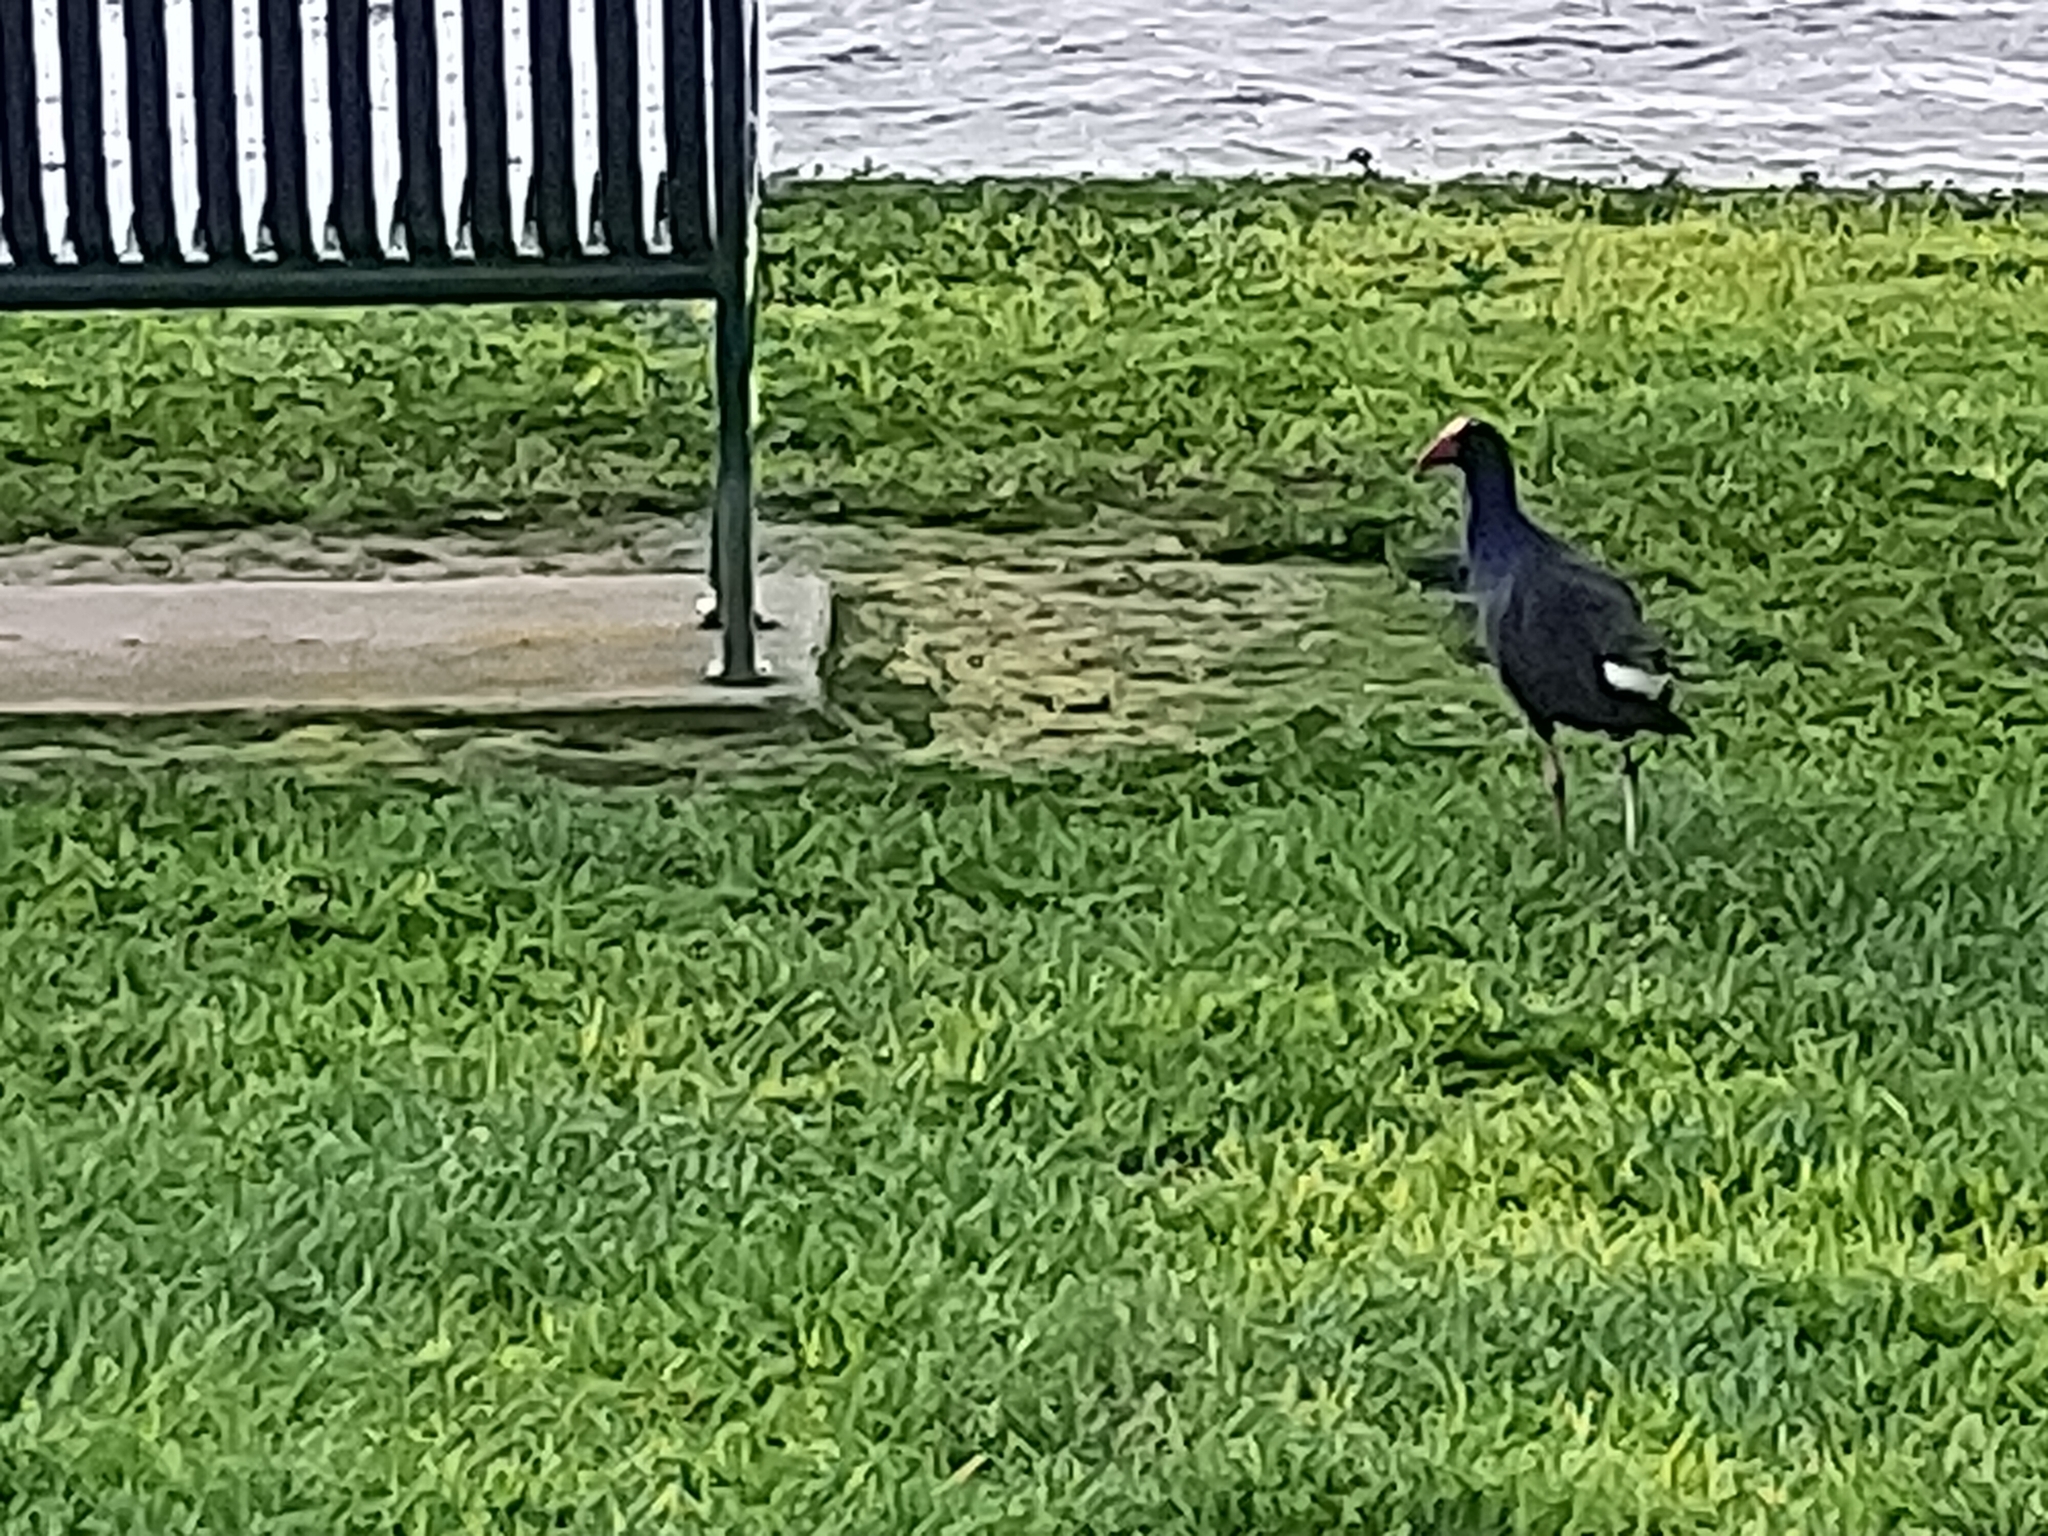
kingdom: Animalia
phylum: Chordata
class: Aves
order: Gruiformes
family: Rallidae
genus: Porphyrio
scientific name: Porphyrio melanotus
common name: Australasian swamphen
